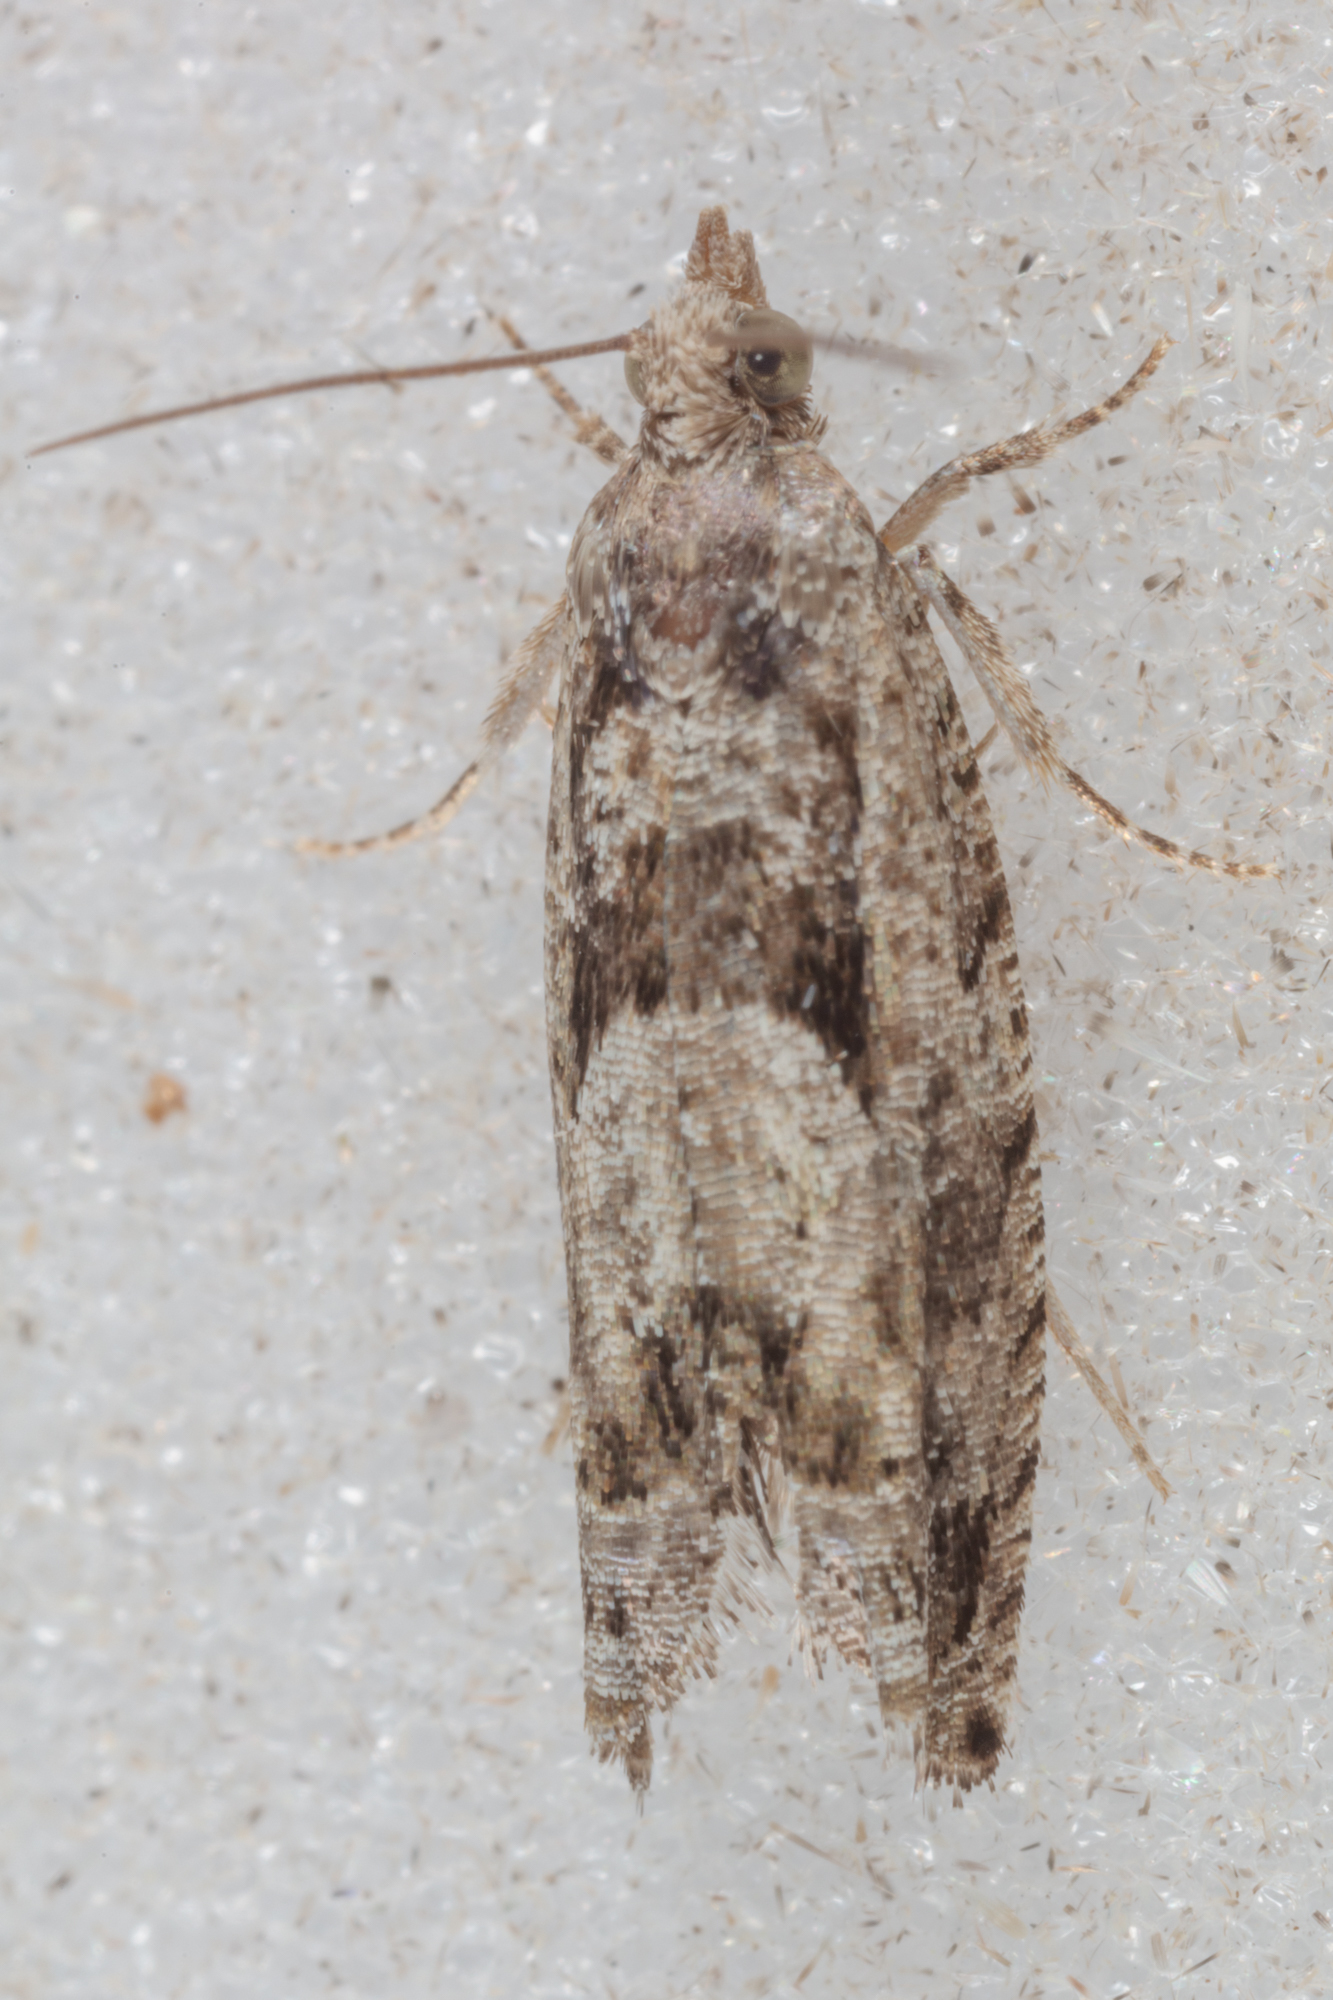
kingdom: Animalia
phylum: Arthropoda
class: Insecta
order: Lepidoptera
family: Tortricidae
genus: Pseudexentera
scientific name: Pseudexentera hodsoni
